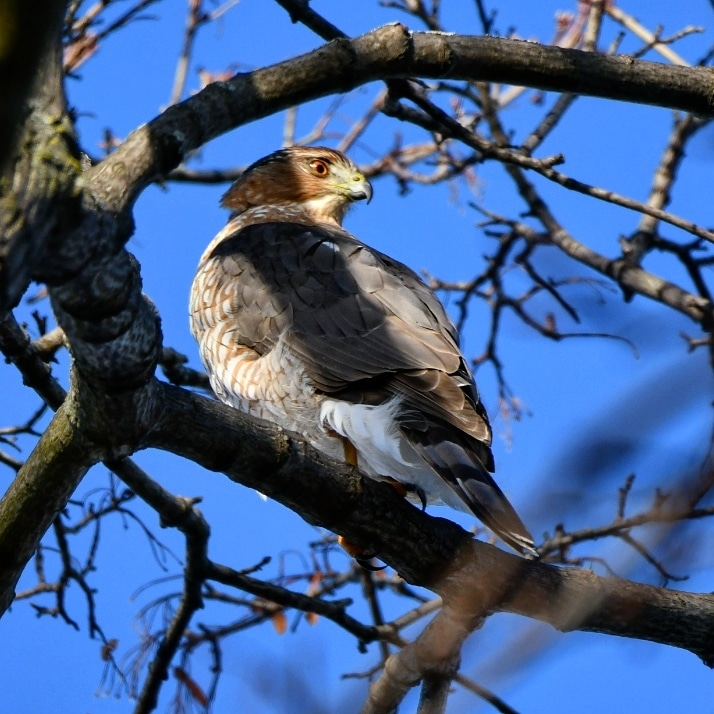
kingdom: Animalia
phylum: Chordata
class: Aves
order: Accipitriformes
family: Accipitridae
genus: Accipiter
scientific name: Accipiter cooperii
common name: Cooper's hawk
